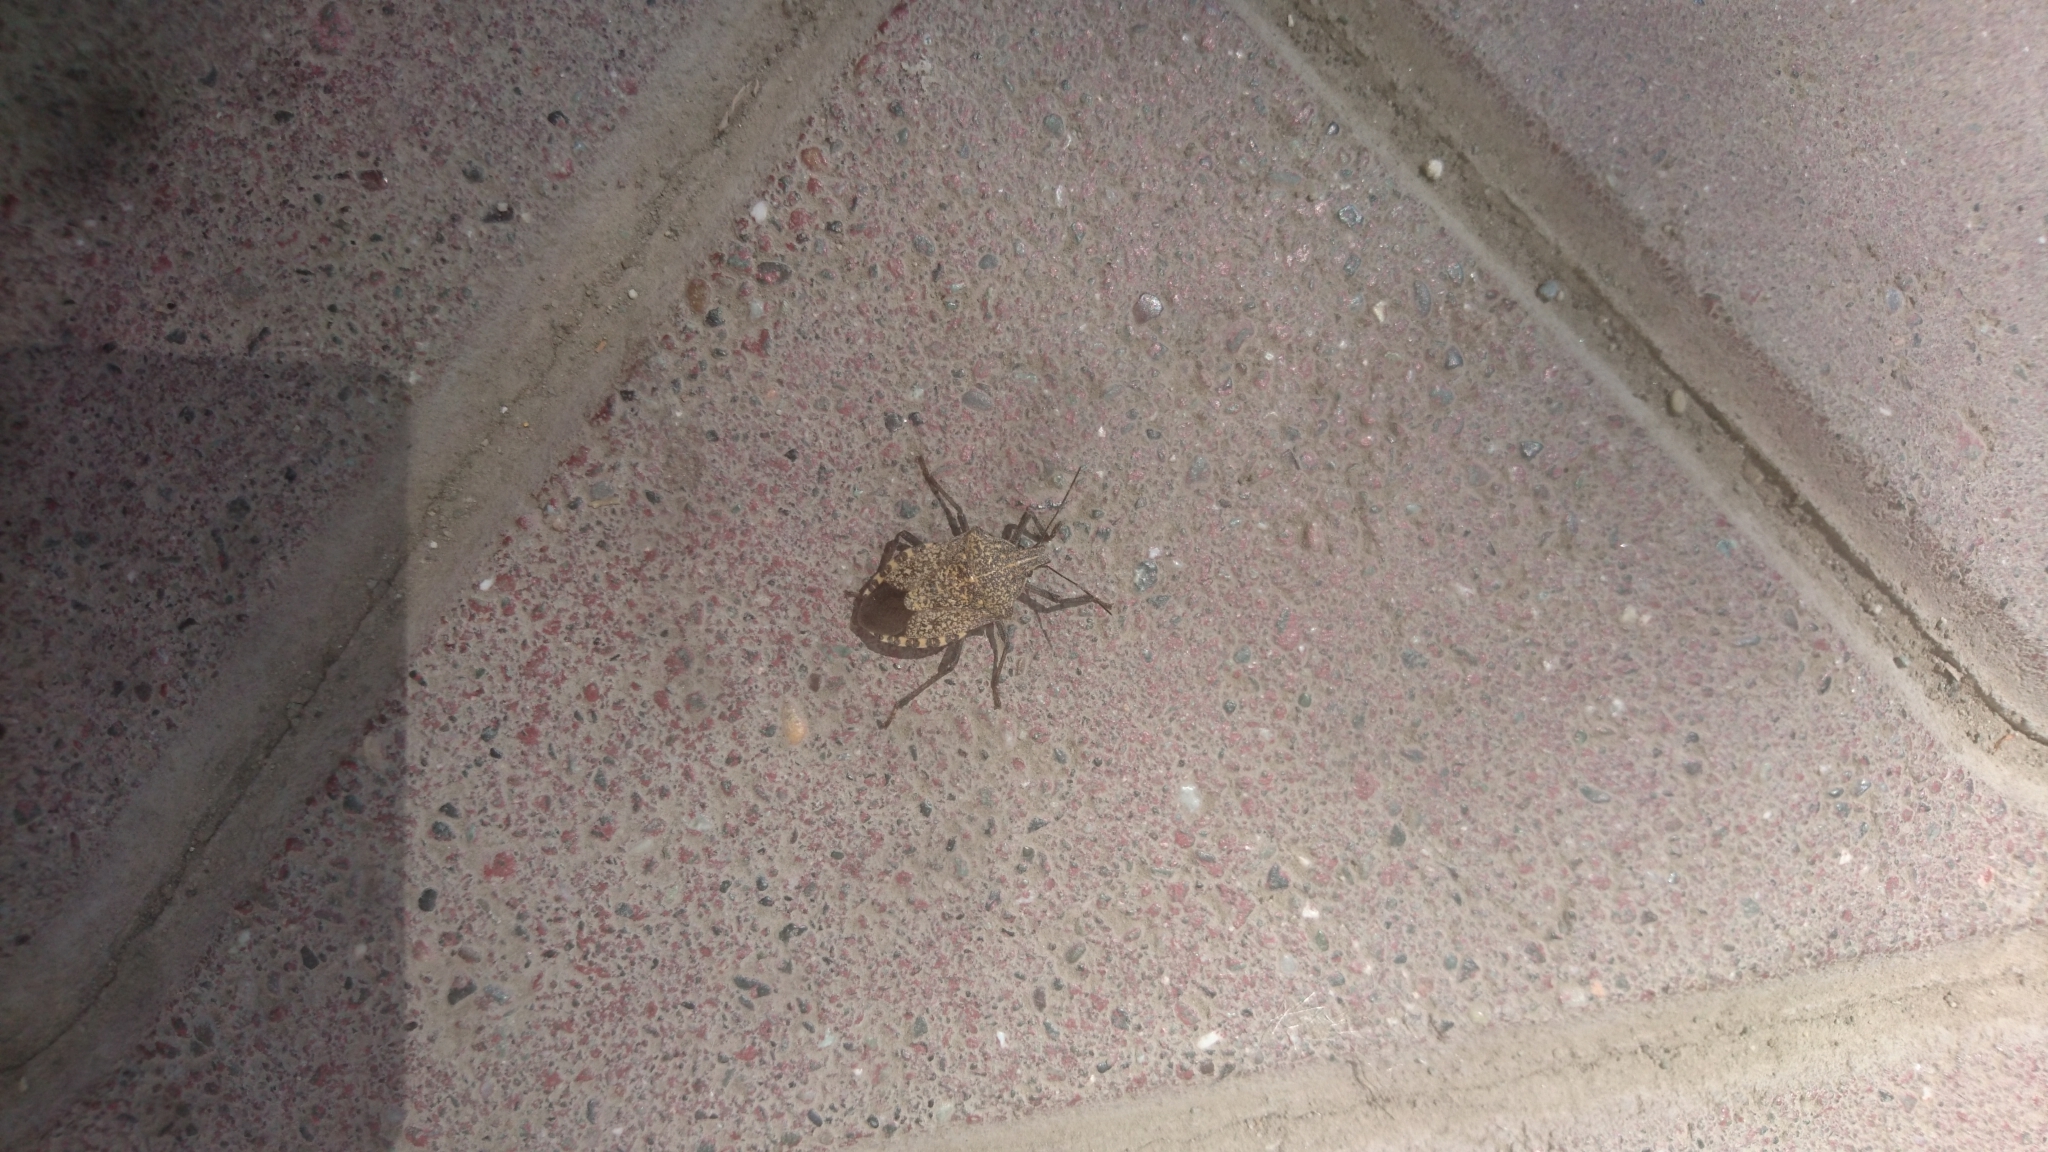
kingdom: Animalia
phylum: Arthropoda
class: Insecta
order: Hemiptera
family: Pentatomidae
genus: Apodiphus
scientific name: Apodiphus amygdali
